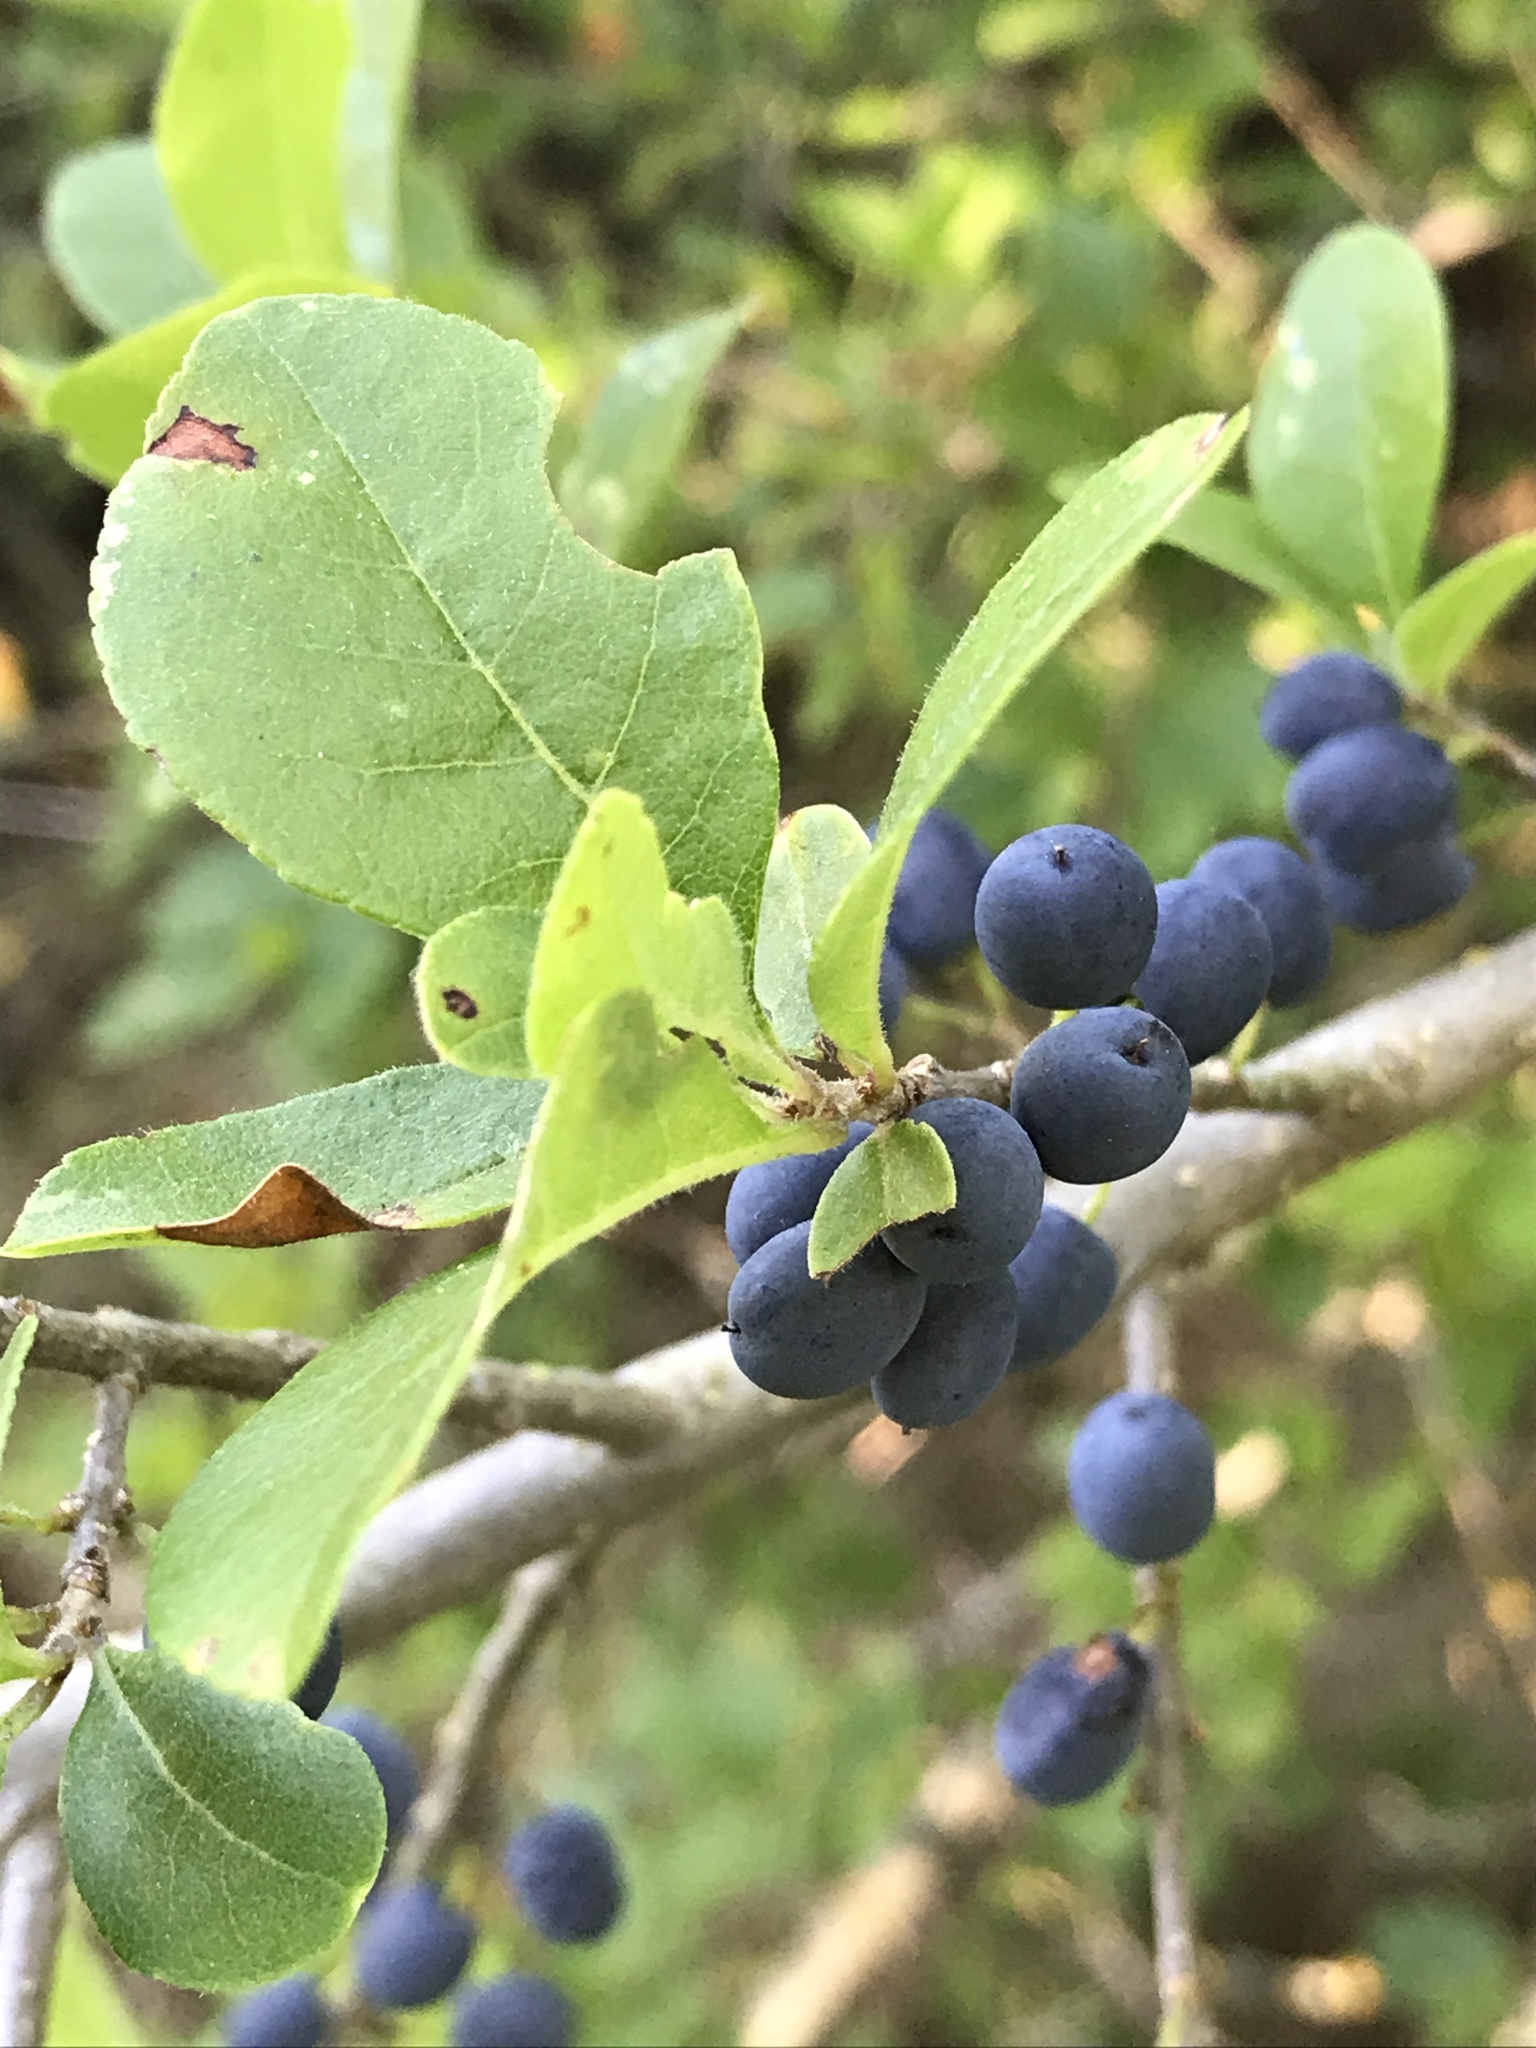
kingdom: Plantae
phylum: Tracheophyta
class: Magnoliopsida
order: Lamiales
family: Oleaceae
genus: Forestiera
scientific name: Forestiera pubescens
